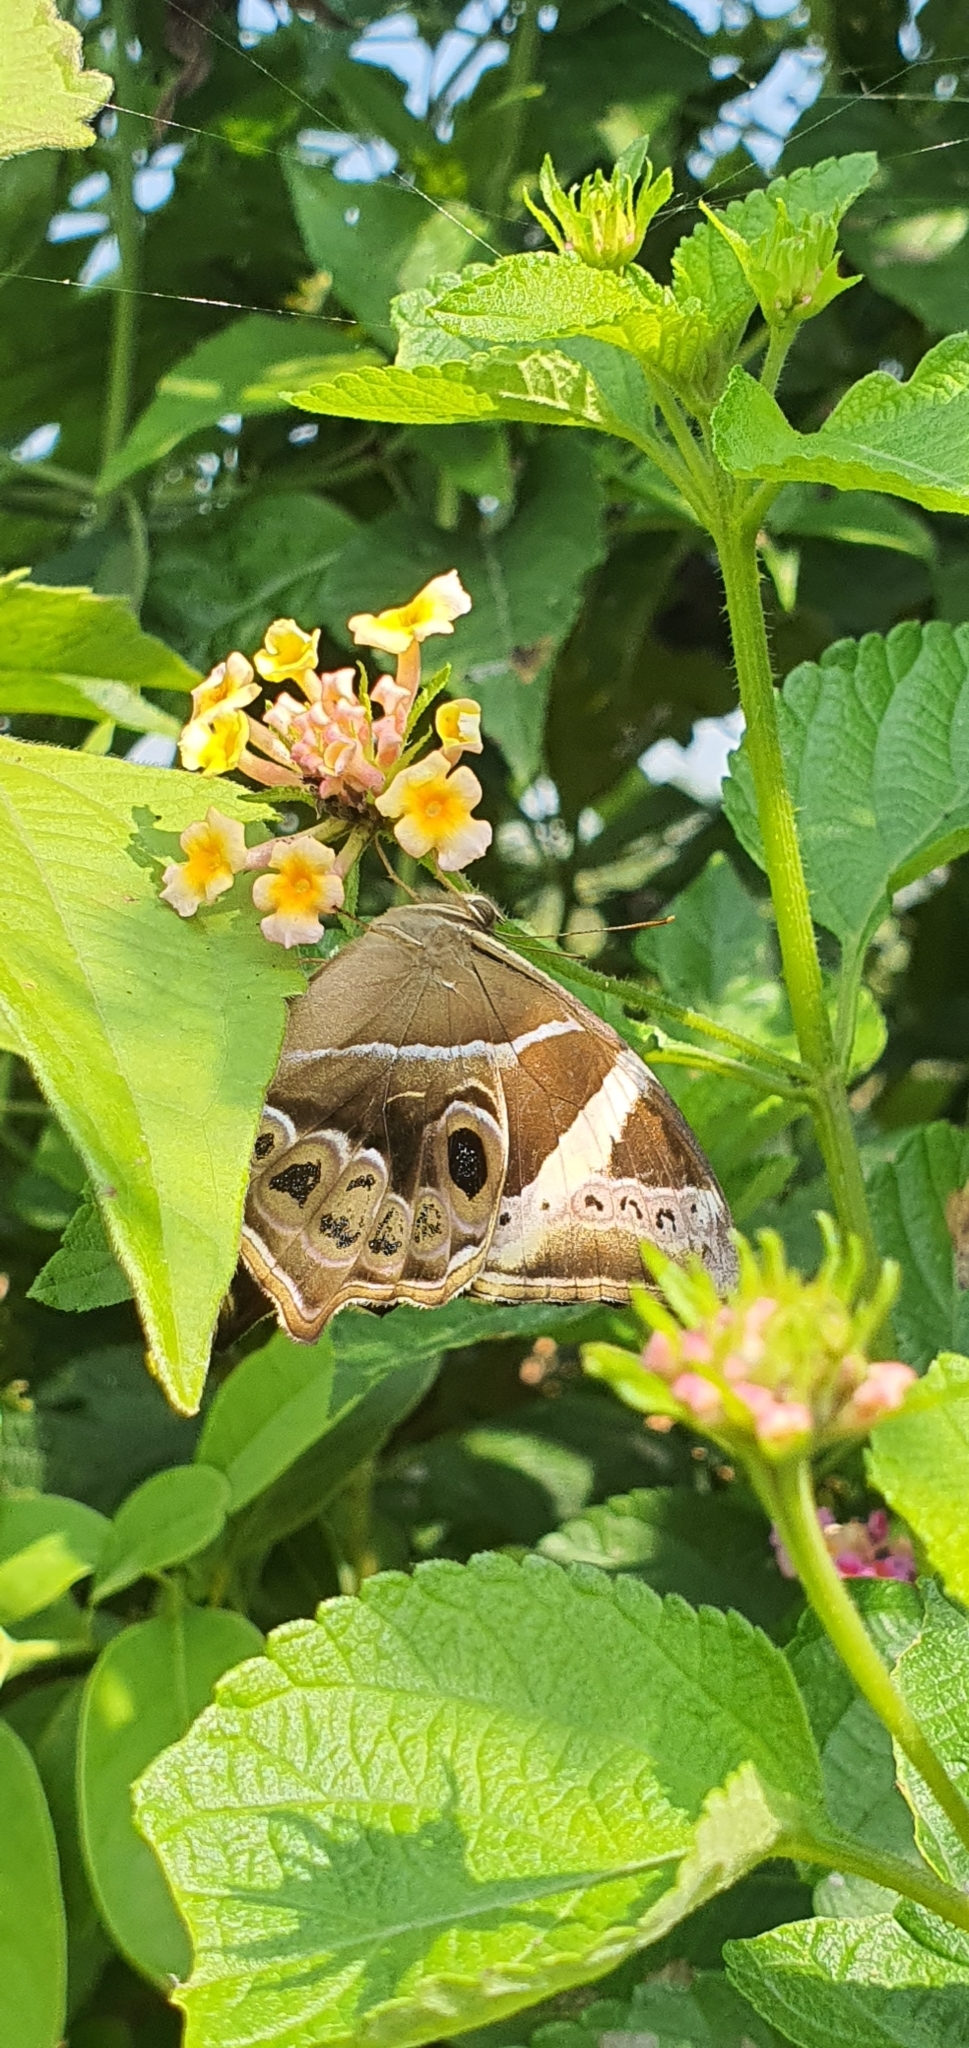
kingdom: Animalia
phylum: Arthropoda
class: Insecta
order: Lepidoptera
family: Nymphalidae
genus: Lethe
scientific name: Lethe europa
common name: Bamboo treebrown
